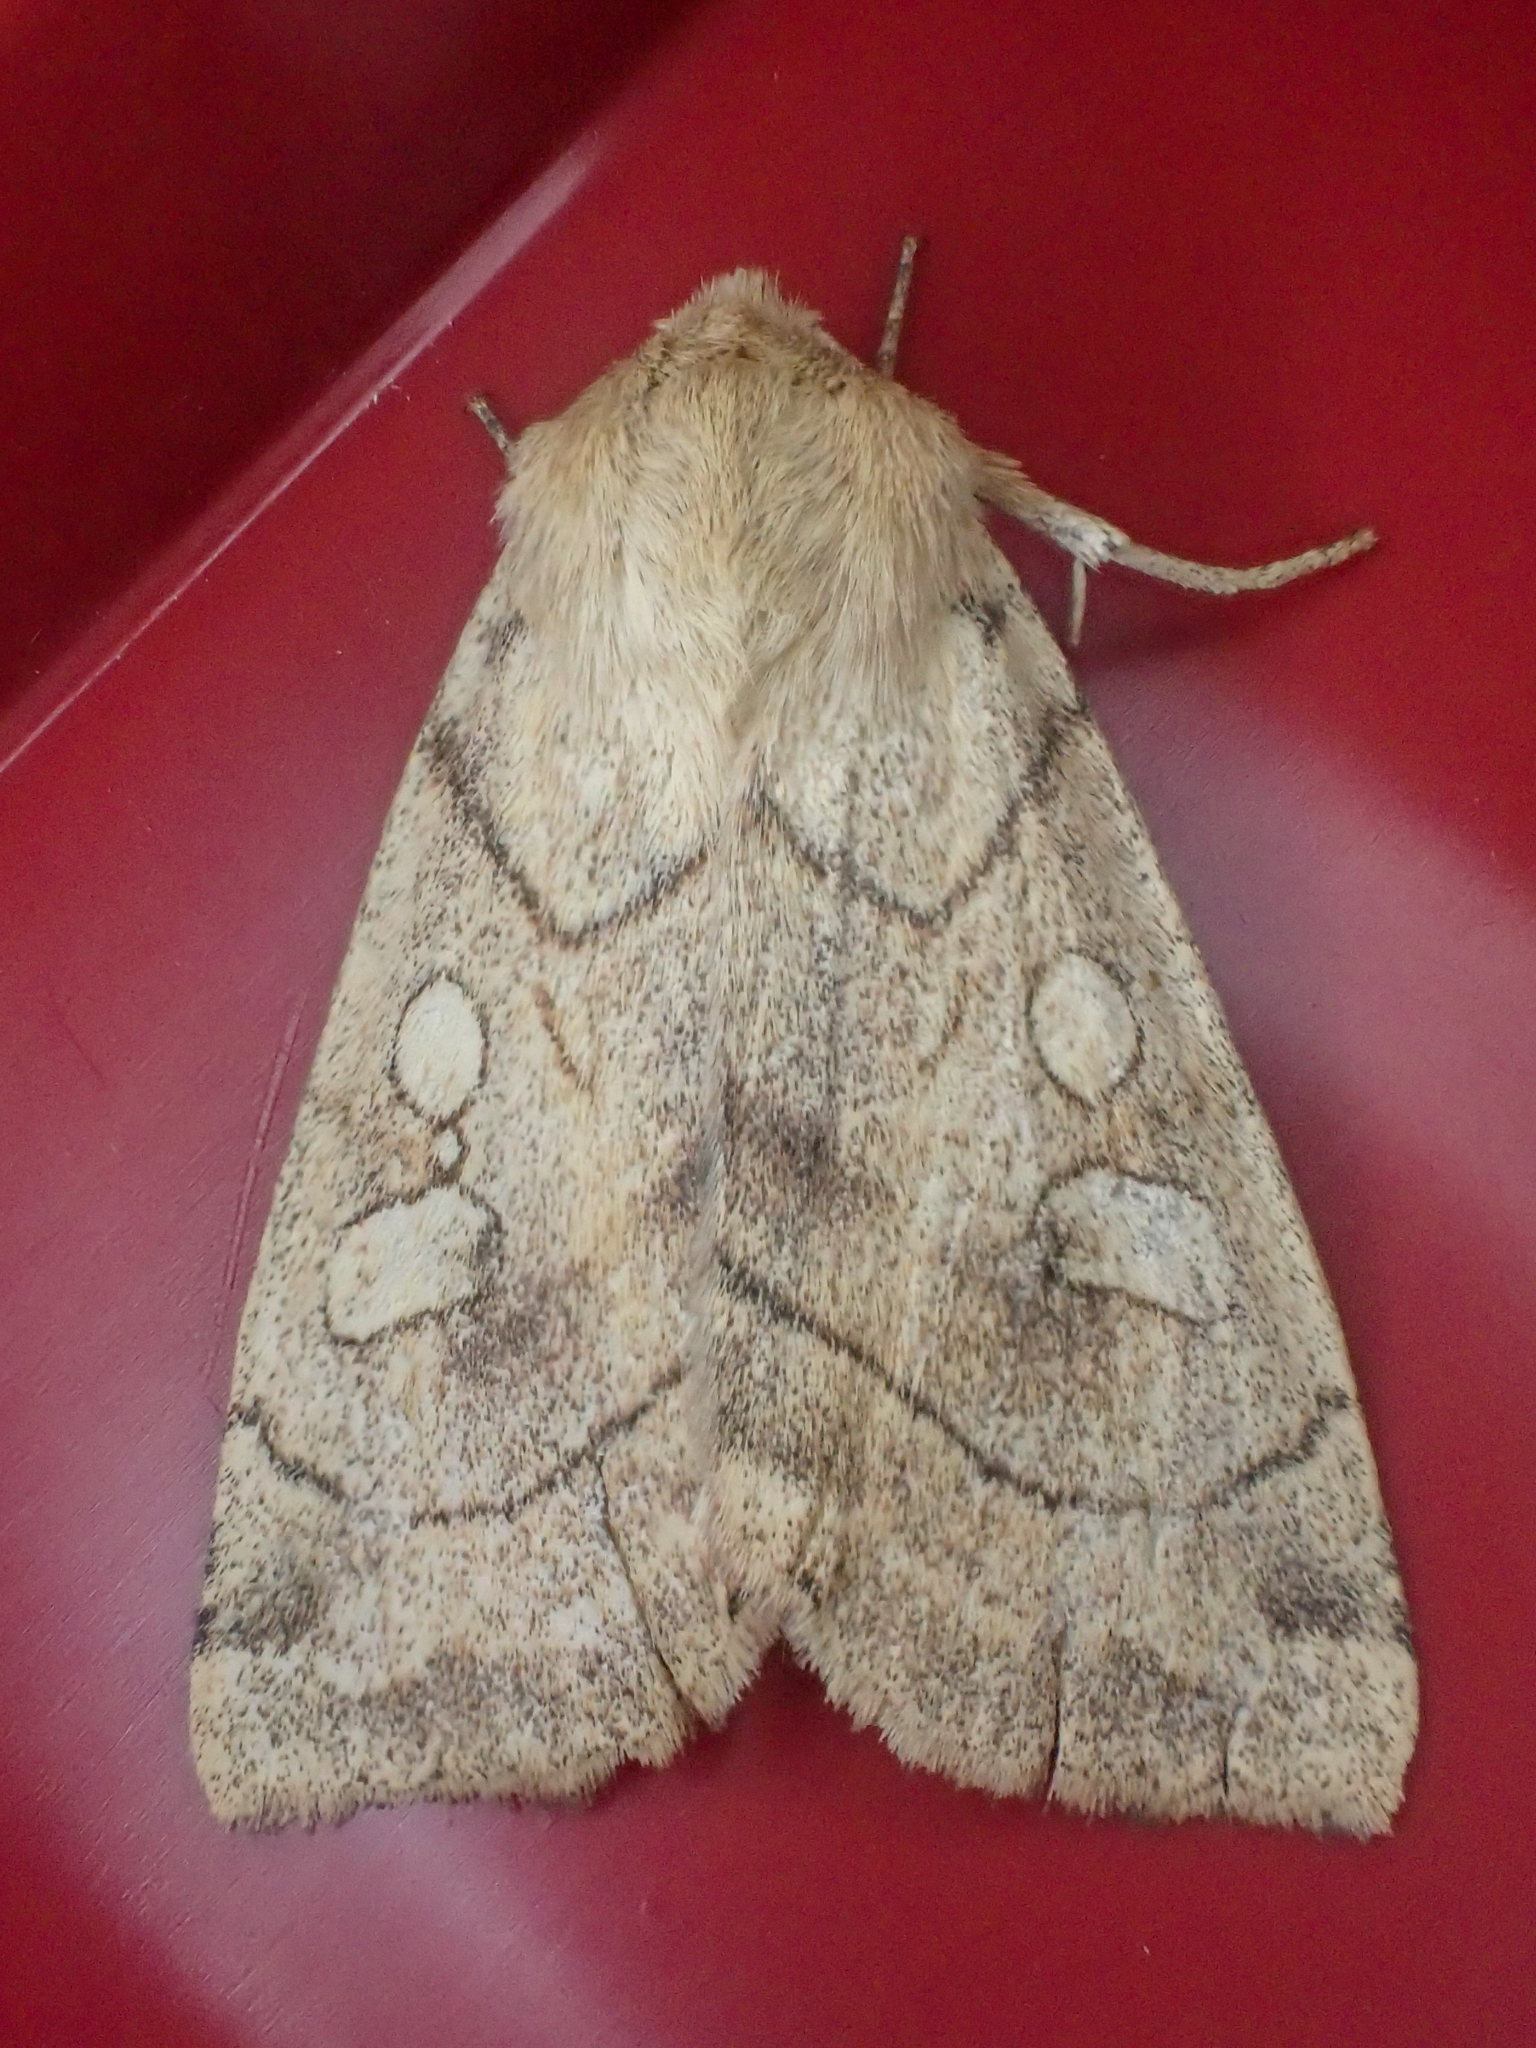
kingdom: Animalia
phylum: Arthropoda
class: Insecta
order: Lepidoptera
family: Noctuidae
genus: Enargia
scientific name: Enargia decolor
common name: Aspen twoleaf tier moth
